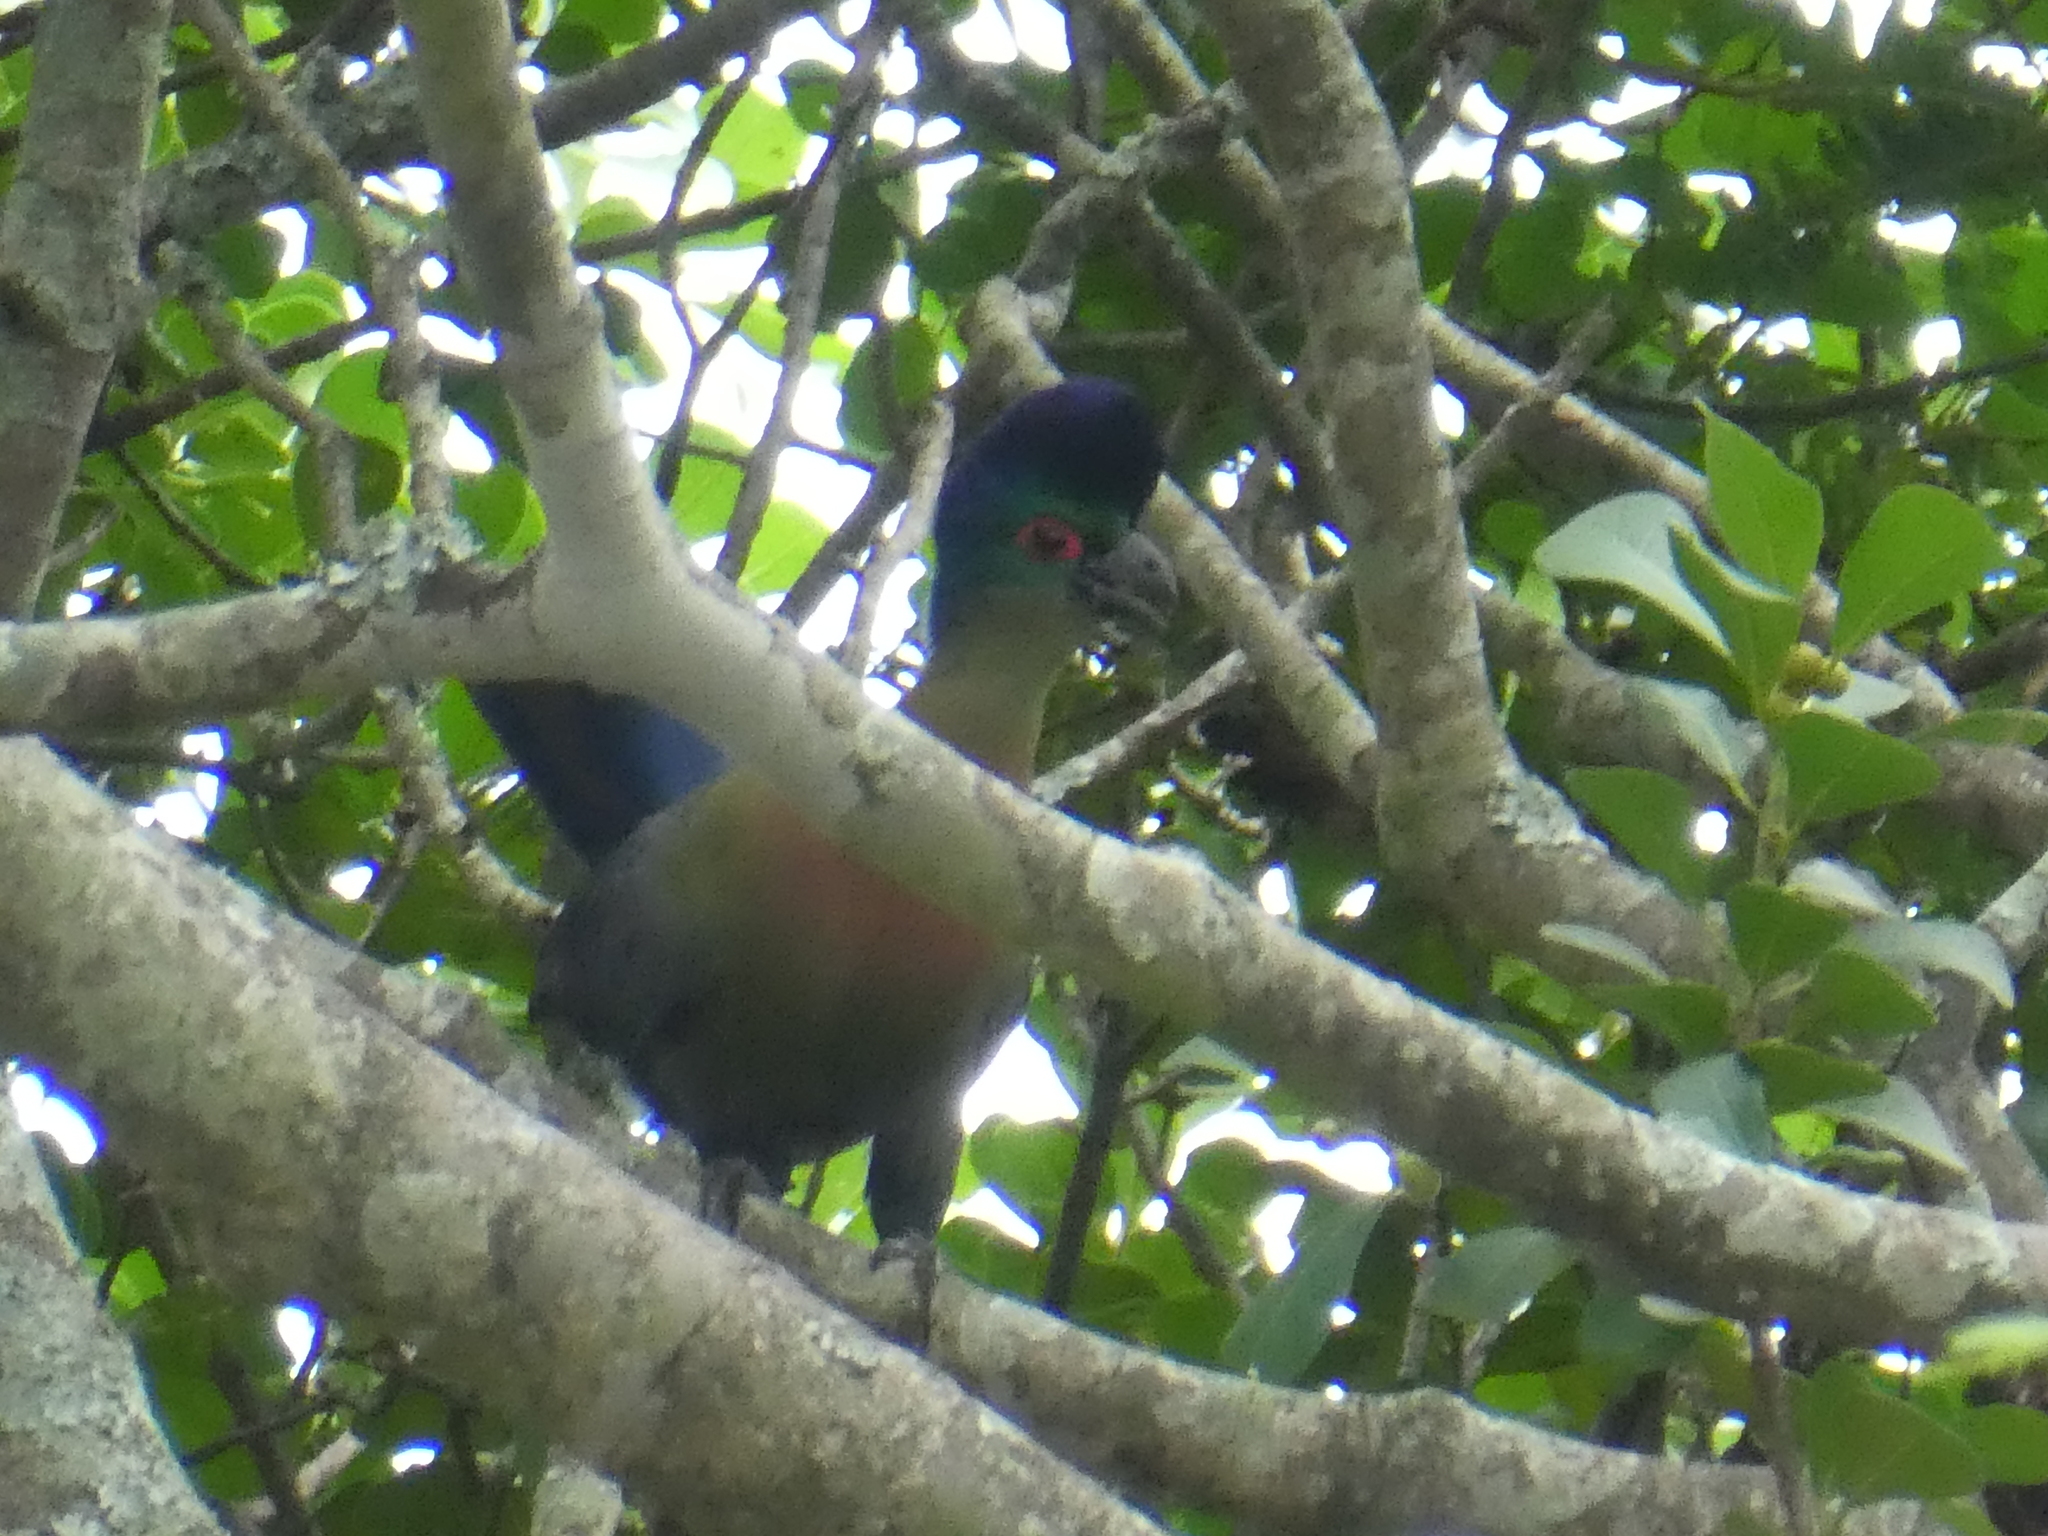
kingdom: Animalia
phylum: Chordata
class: Aves
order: Musophagiformes
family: Musophagidae
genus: Tauraco
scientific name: Tauraco porphyreolophus
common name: Purple-crested turaco
